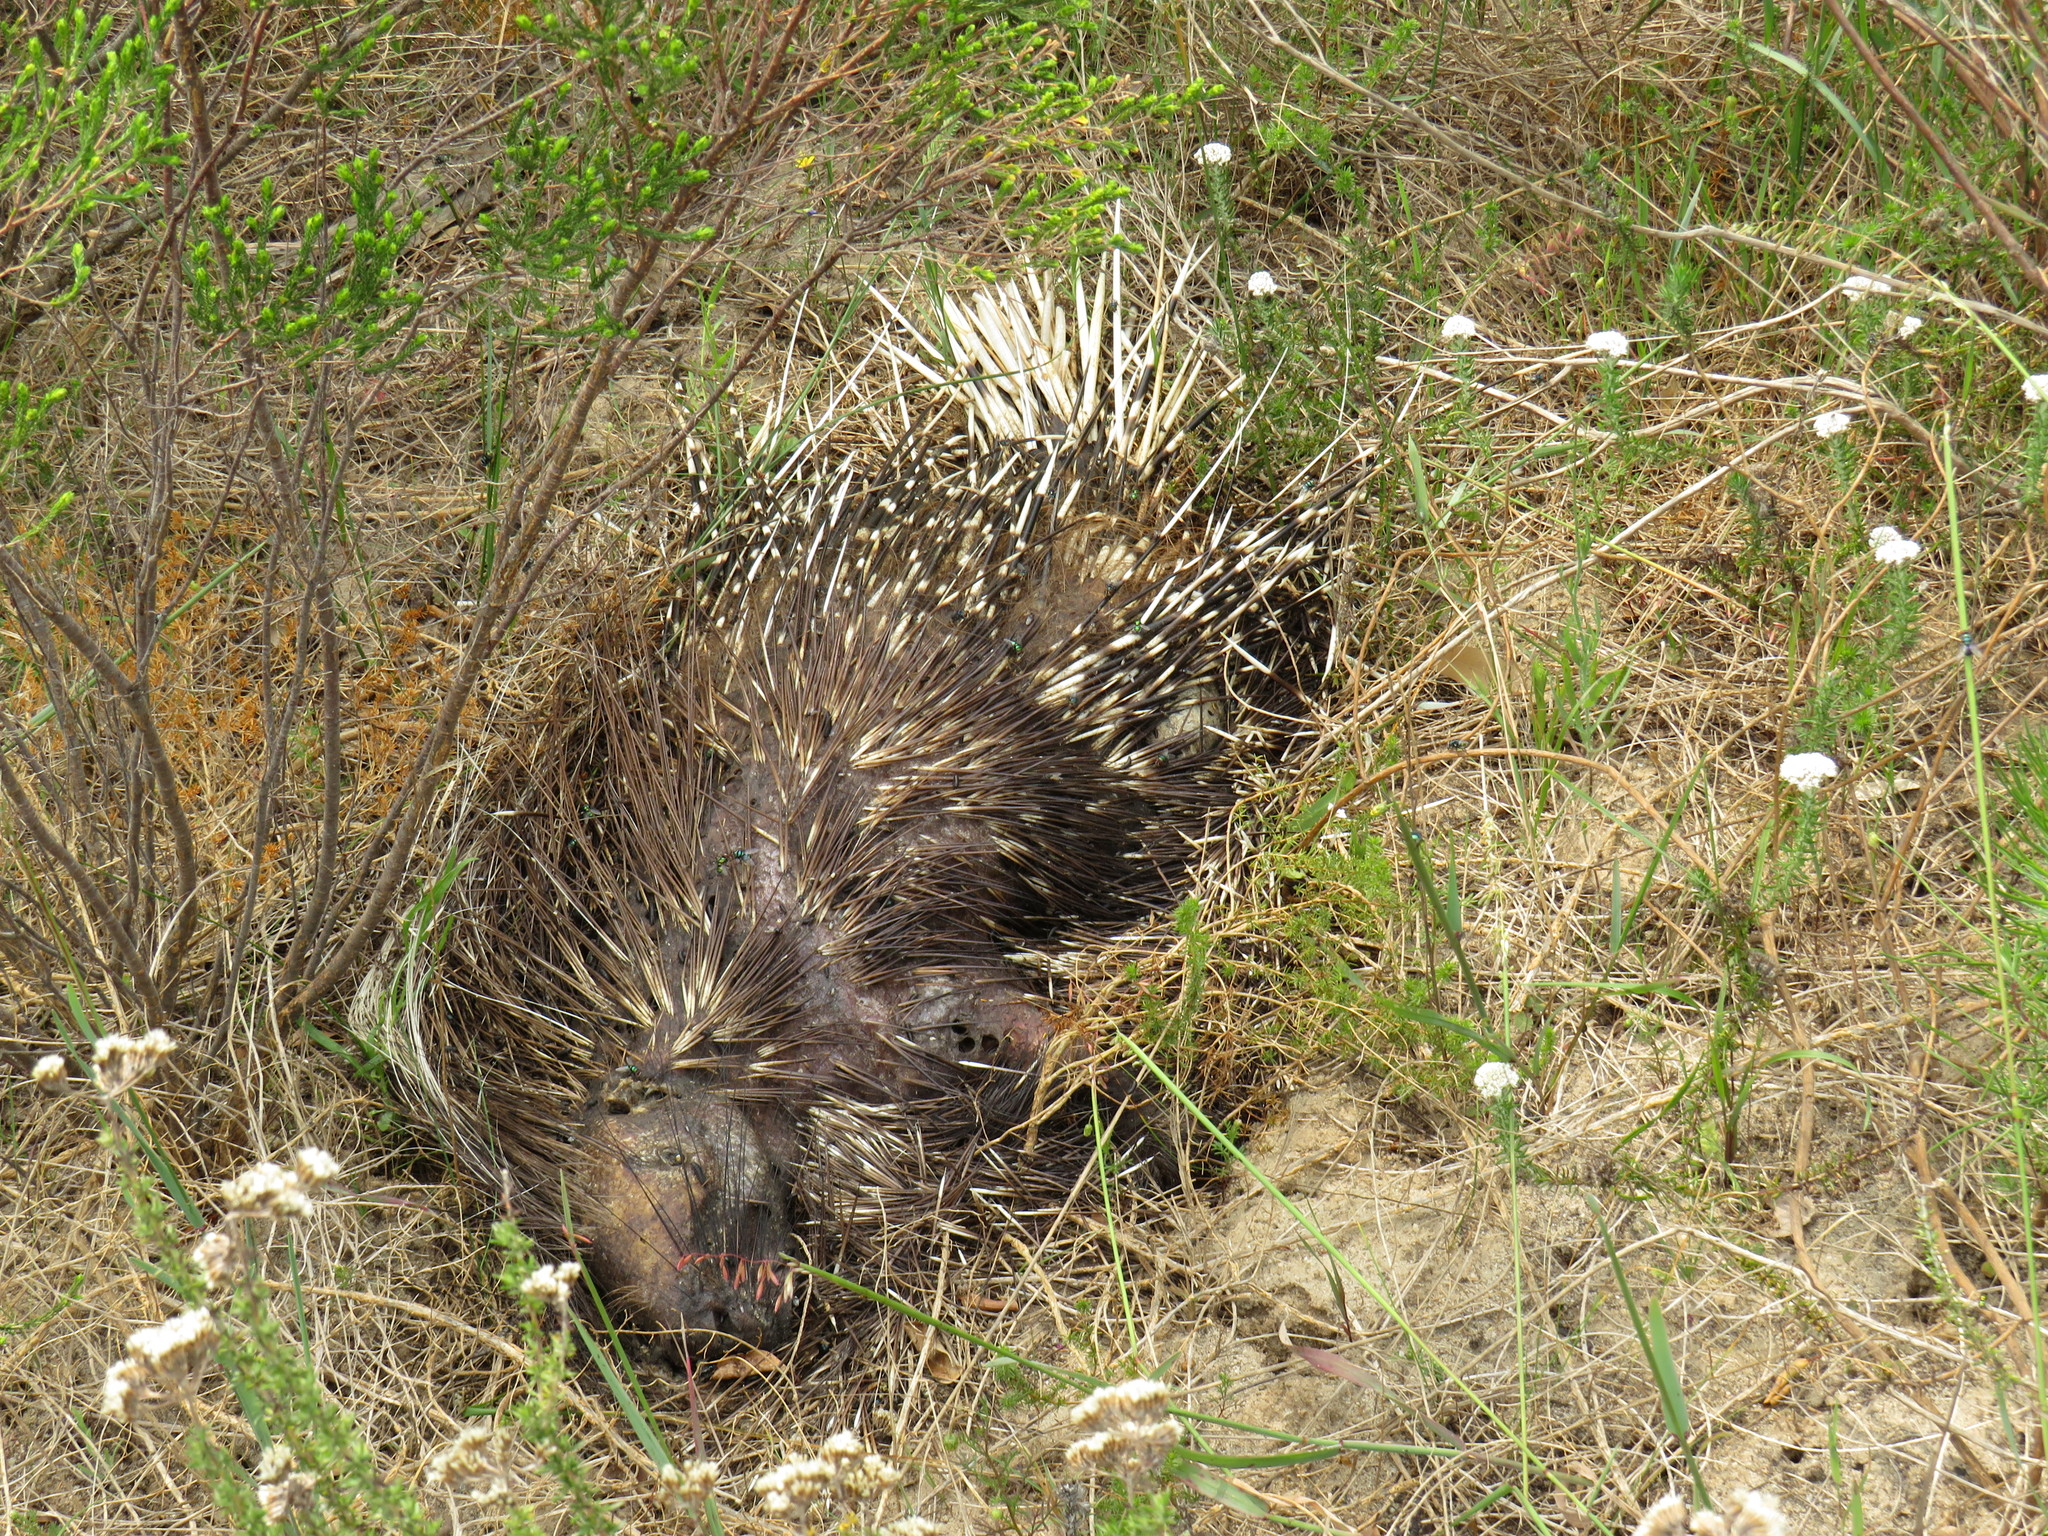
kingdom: Animalia
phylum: Chordata
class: Mammalia
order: Rodentia
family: Hystricidae
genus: Hystrix
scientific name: Hystrix africaeaustralis
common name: Cape porcupine
